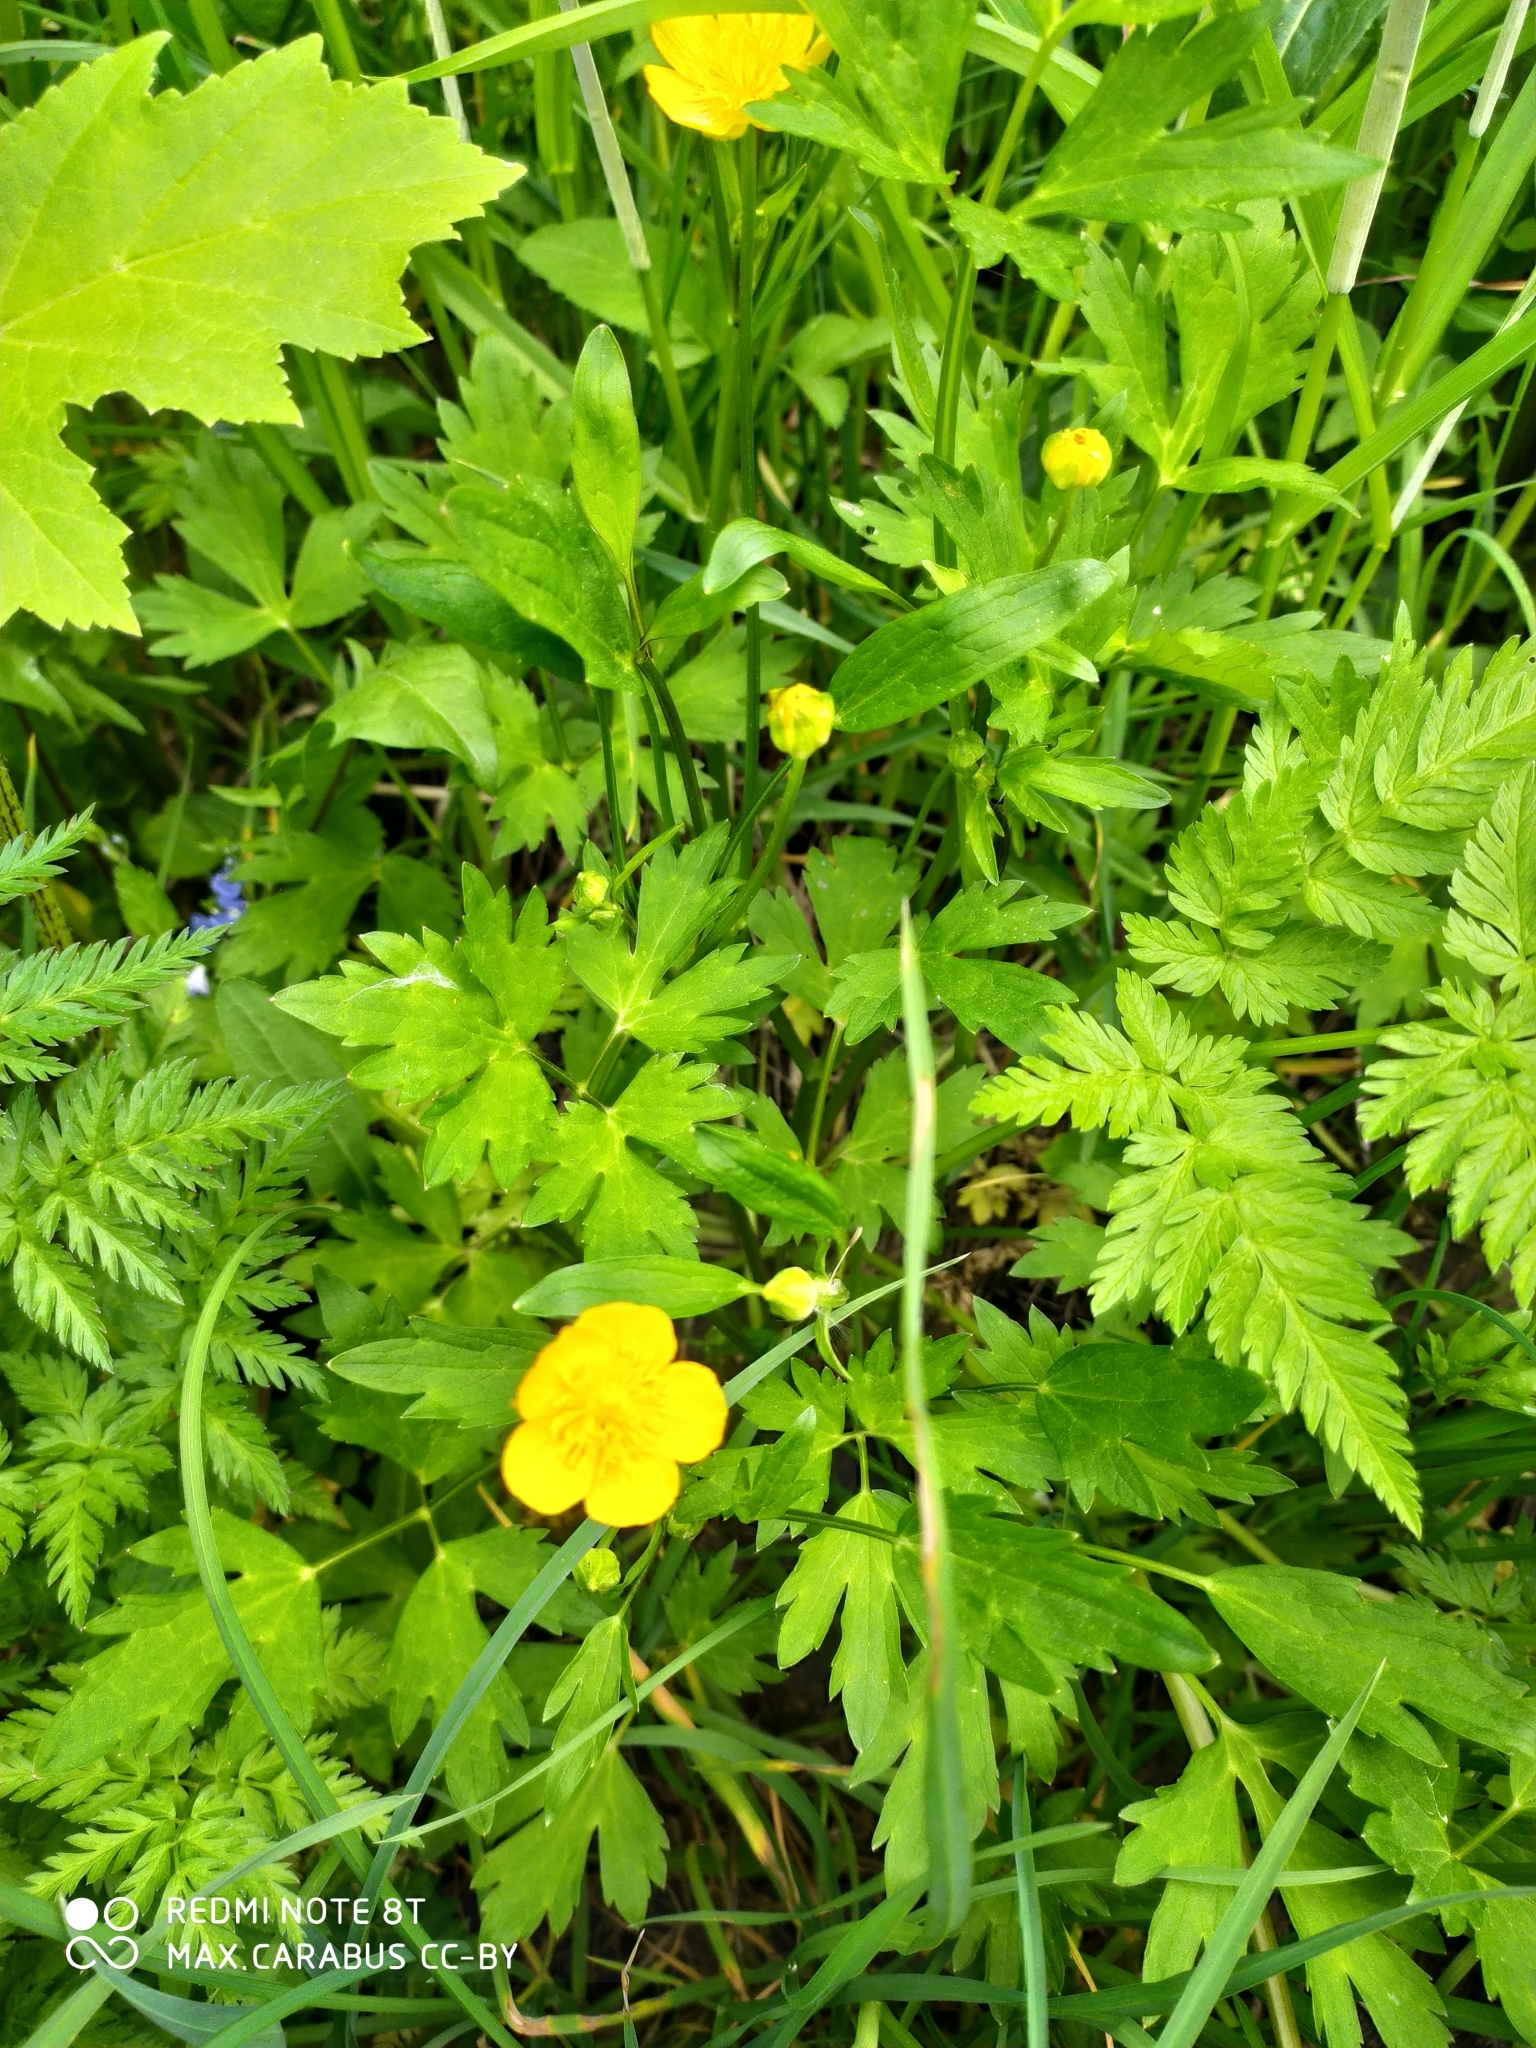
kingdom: Plantae
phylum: Tracheophyta
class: Magnoliopsida
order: Ranunculales
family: Ranunculaceae
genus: Ranunculus
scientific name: Ranunculus repens
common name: Creeping buttercup
